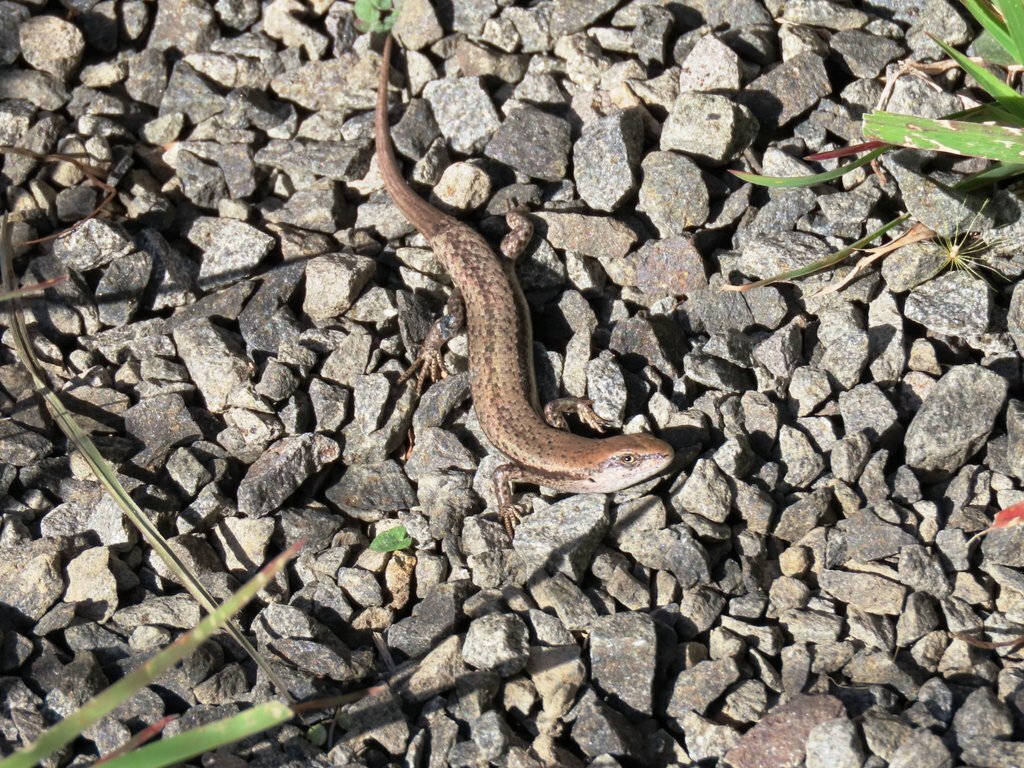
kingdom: Animalia
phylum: Chordata
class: Squamata
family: Scincidae
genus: Lampropholis
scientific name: Lampropholis guichenoti
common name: Garden skink
